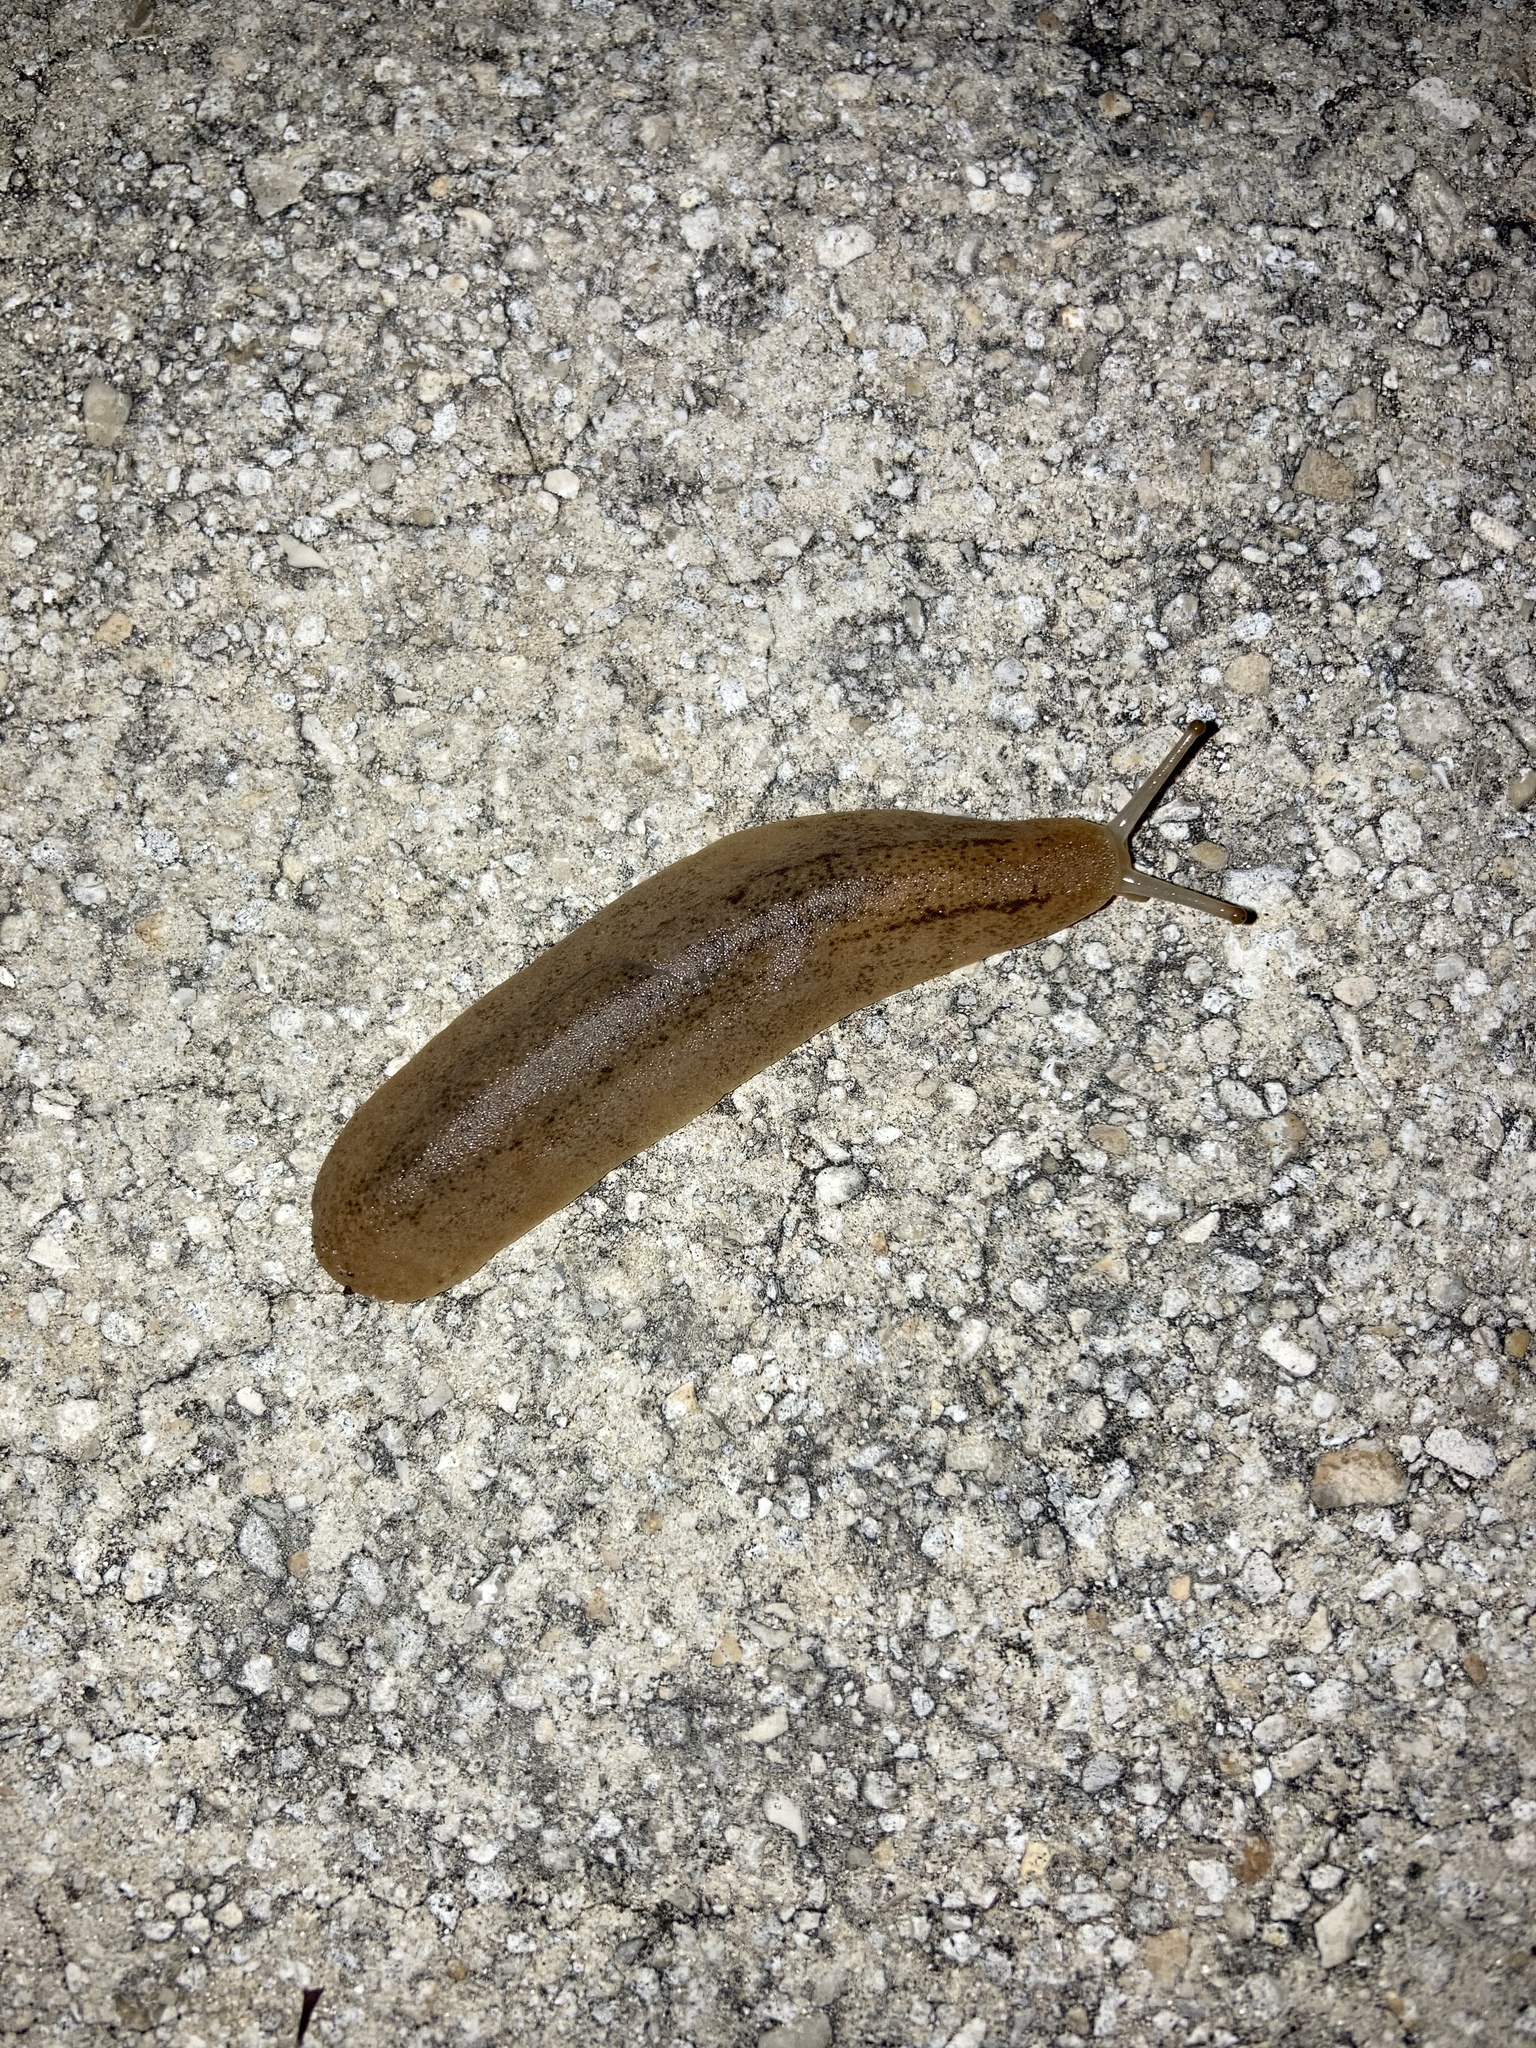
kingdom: Animalia
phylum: Mollusca
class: Gastropoda
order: Systellommatophora
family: Veronicellidae
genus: Leidyula
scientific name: Leidyula floridana
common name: Florida leatherleaf
